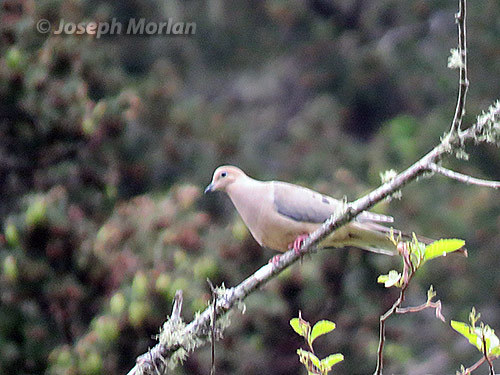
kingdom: Animalia
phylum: Chordata
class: Aves
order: Columbiformes
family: Columbidae
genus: Zenaida
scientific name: Zenaida macroura
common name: Mourning dove
